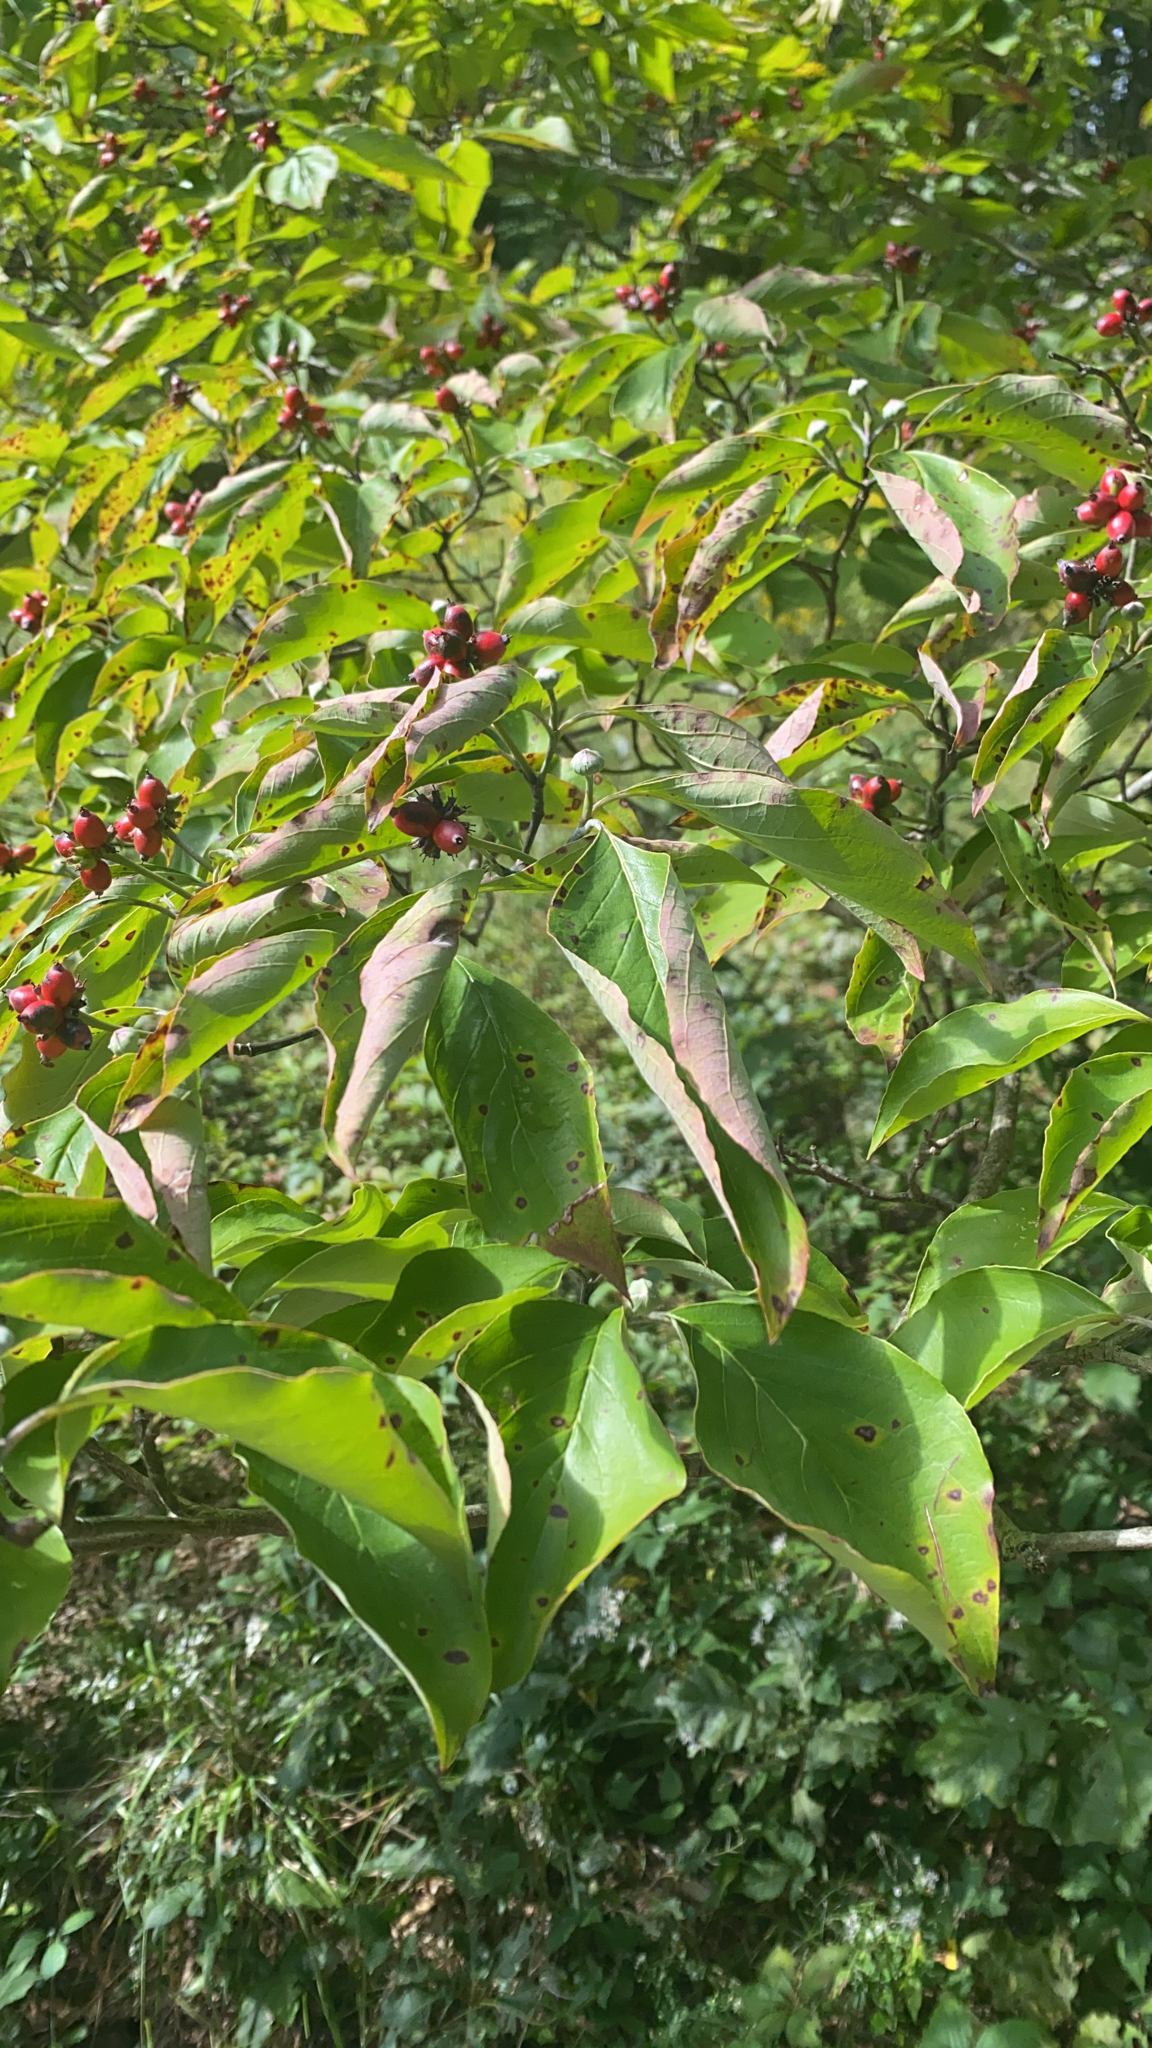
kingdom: Plantae
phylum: Tracheophyta
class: Magnoliopsida
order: Cornales
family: Cornaceae
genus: Cornus
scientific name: Cornus florida
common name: Flowering dogwood
